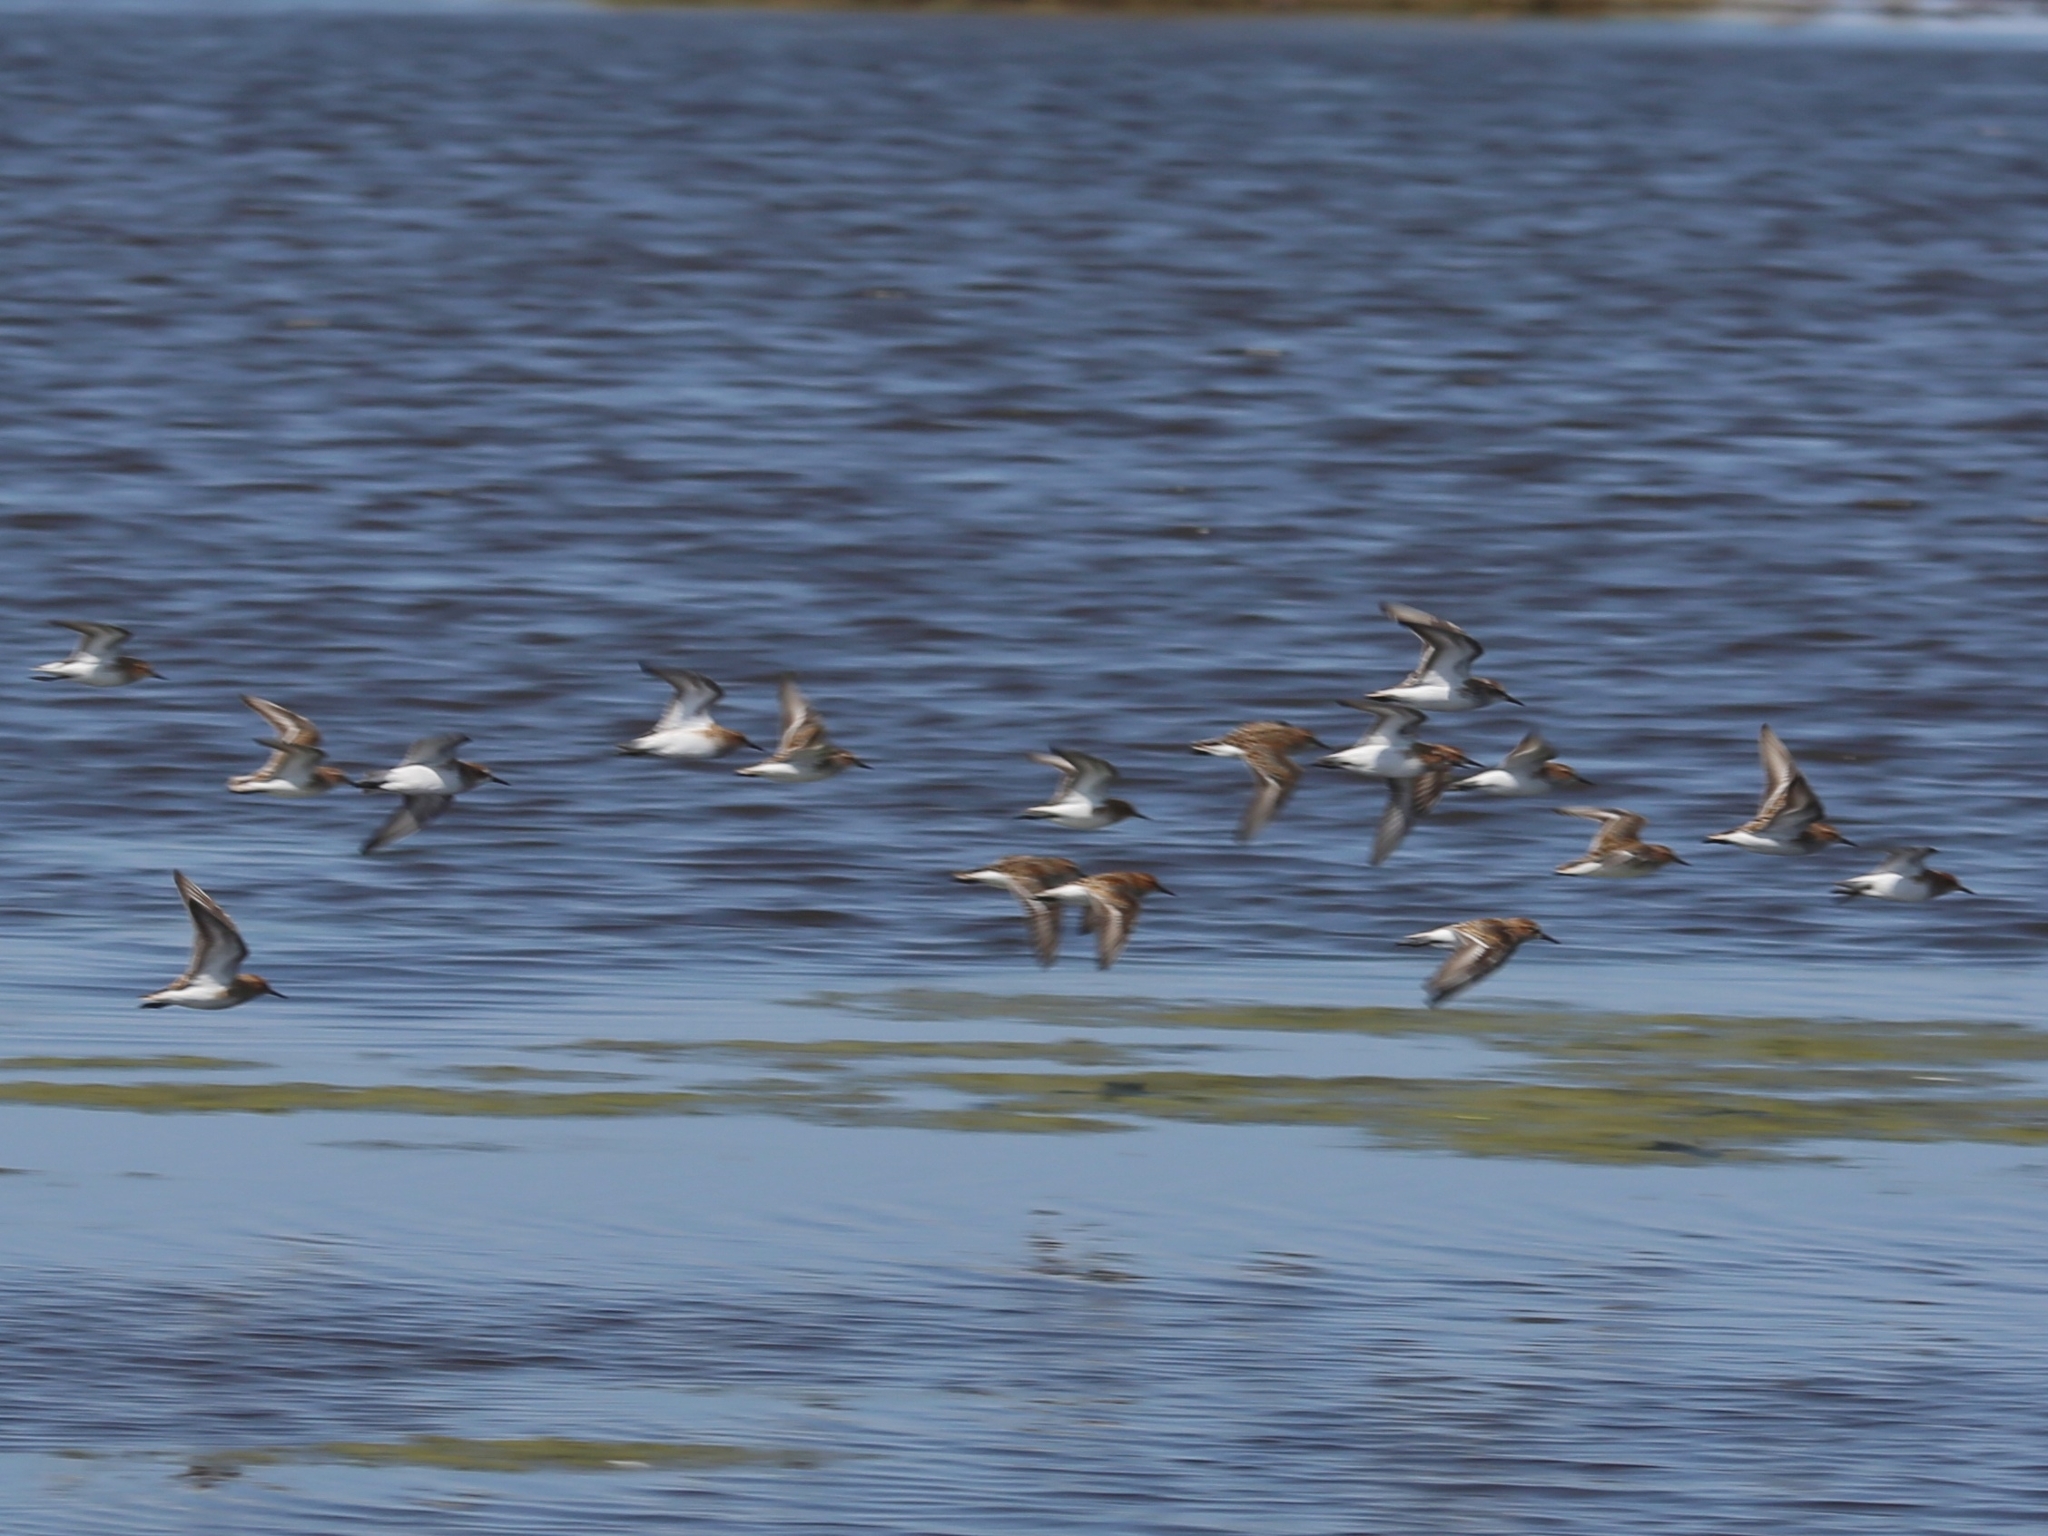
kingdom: Animalia
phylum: Chordata
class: Aves
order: Charadriiformes
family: Scolopacidae
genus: Calidris
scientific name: Calidris minuta
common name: Little stint
